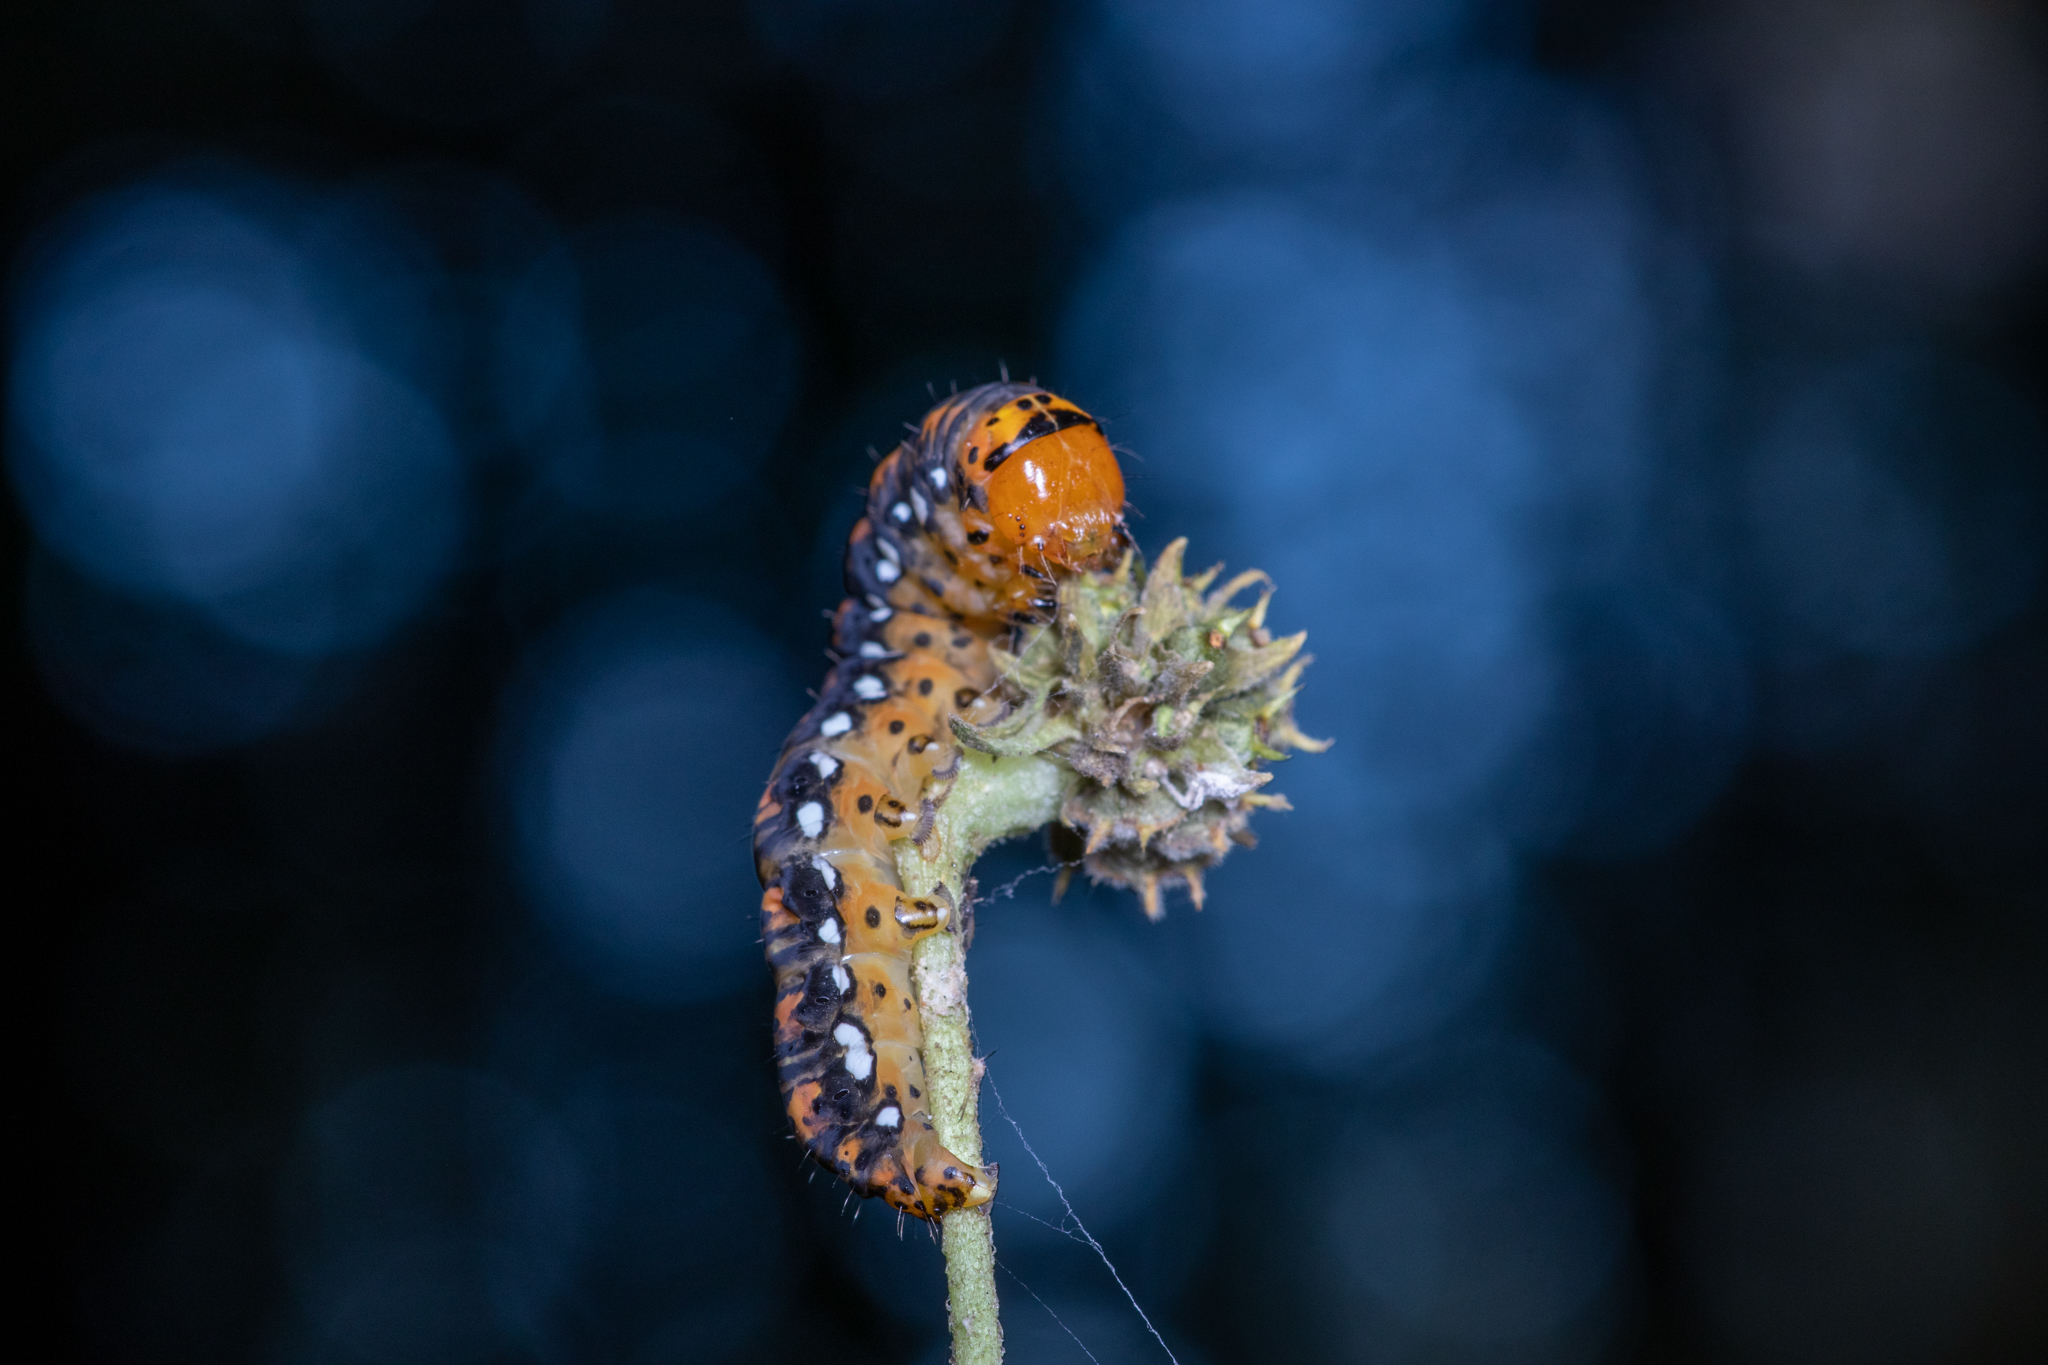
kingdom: Animalia
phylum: Arthropoda
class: Insecta
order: Lepidoptera
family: Noctuidae
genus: Basilodes
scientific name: Basilodes pepita
